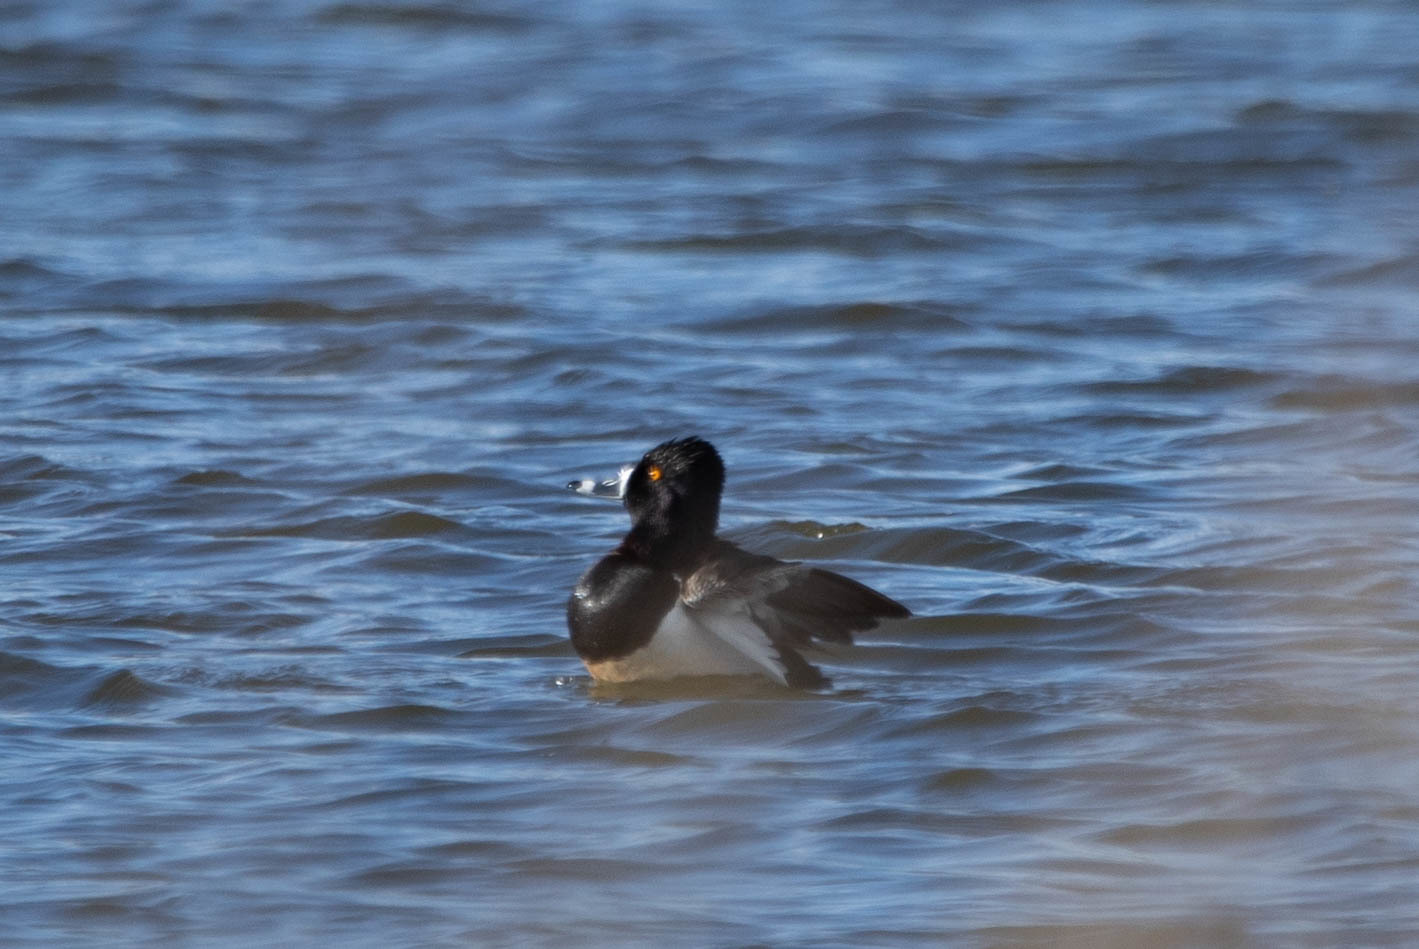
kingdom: Animalia
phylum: Chordata
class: Aves
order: Anseriformes
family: Anatidae
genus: Aythya
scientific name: Aythya collaris
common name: Ring-necked duck
